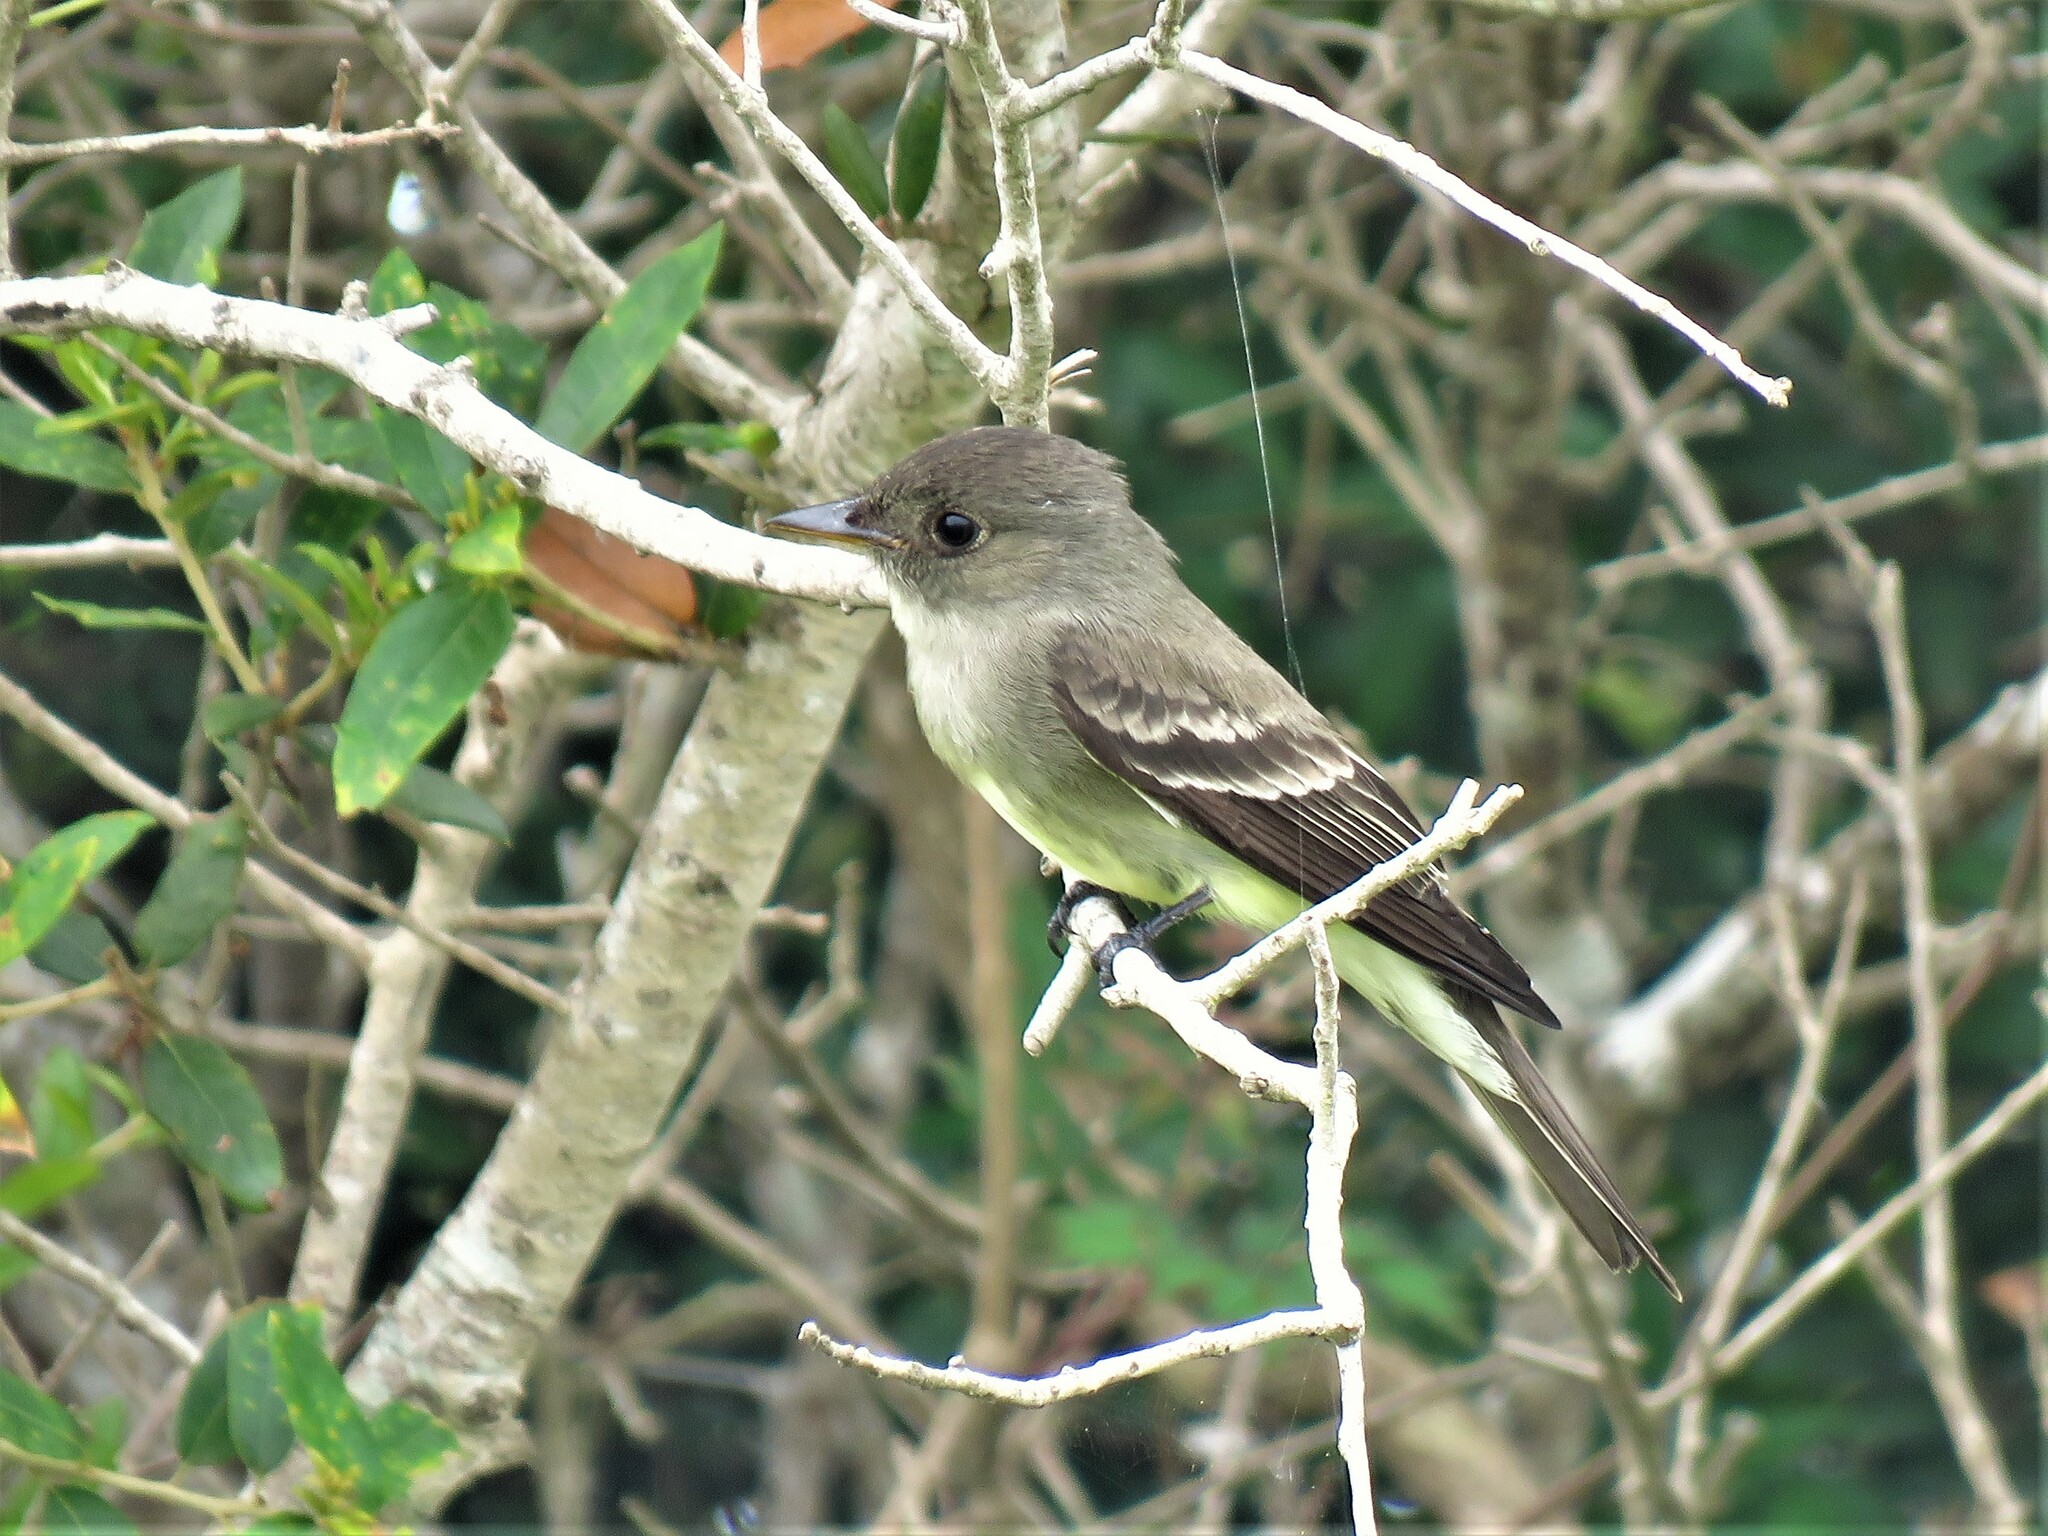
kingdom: Animalia
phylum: Chordata
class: Aves
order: Passeriformes
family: Tyrannidae
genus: Contopus
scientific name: Contopus virens
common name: Eastern wood-pewee
